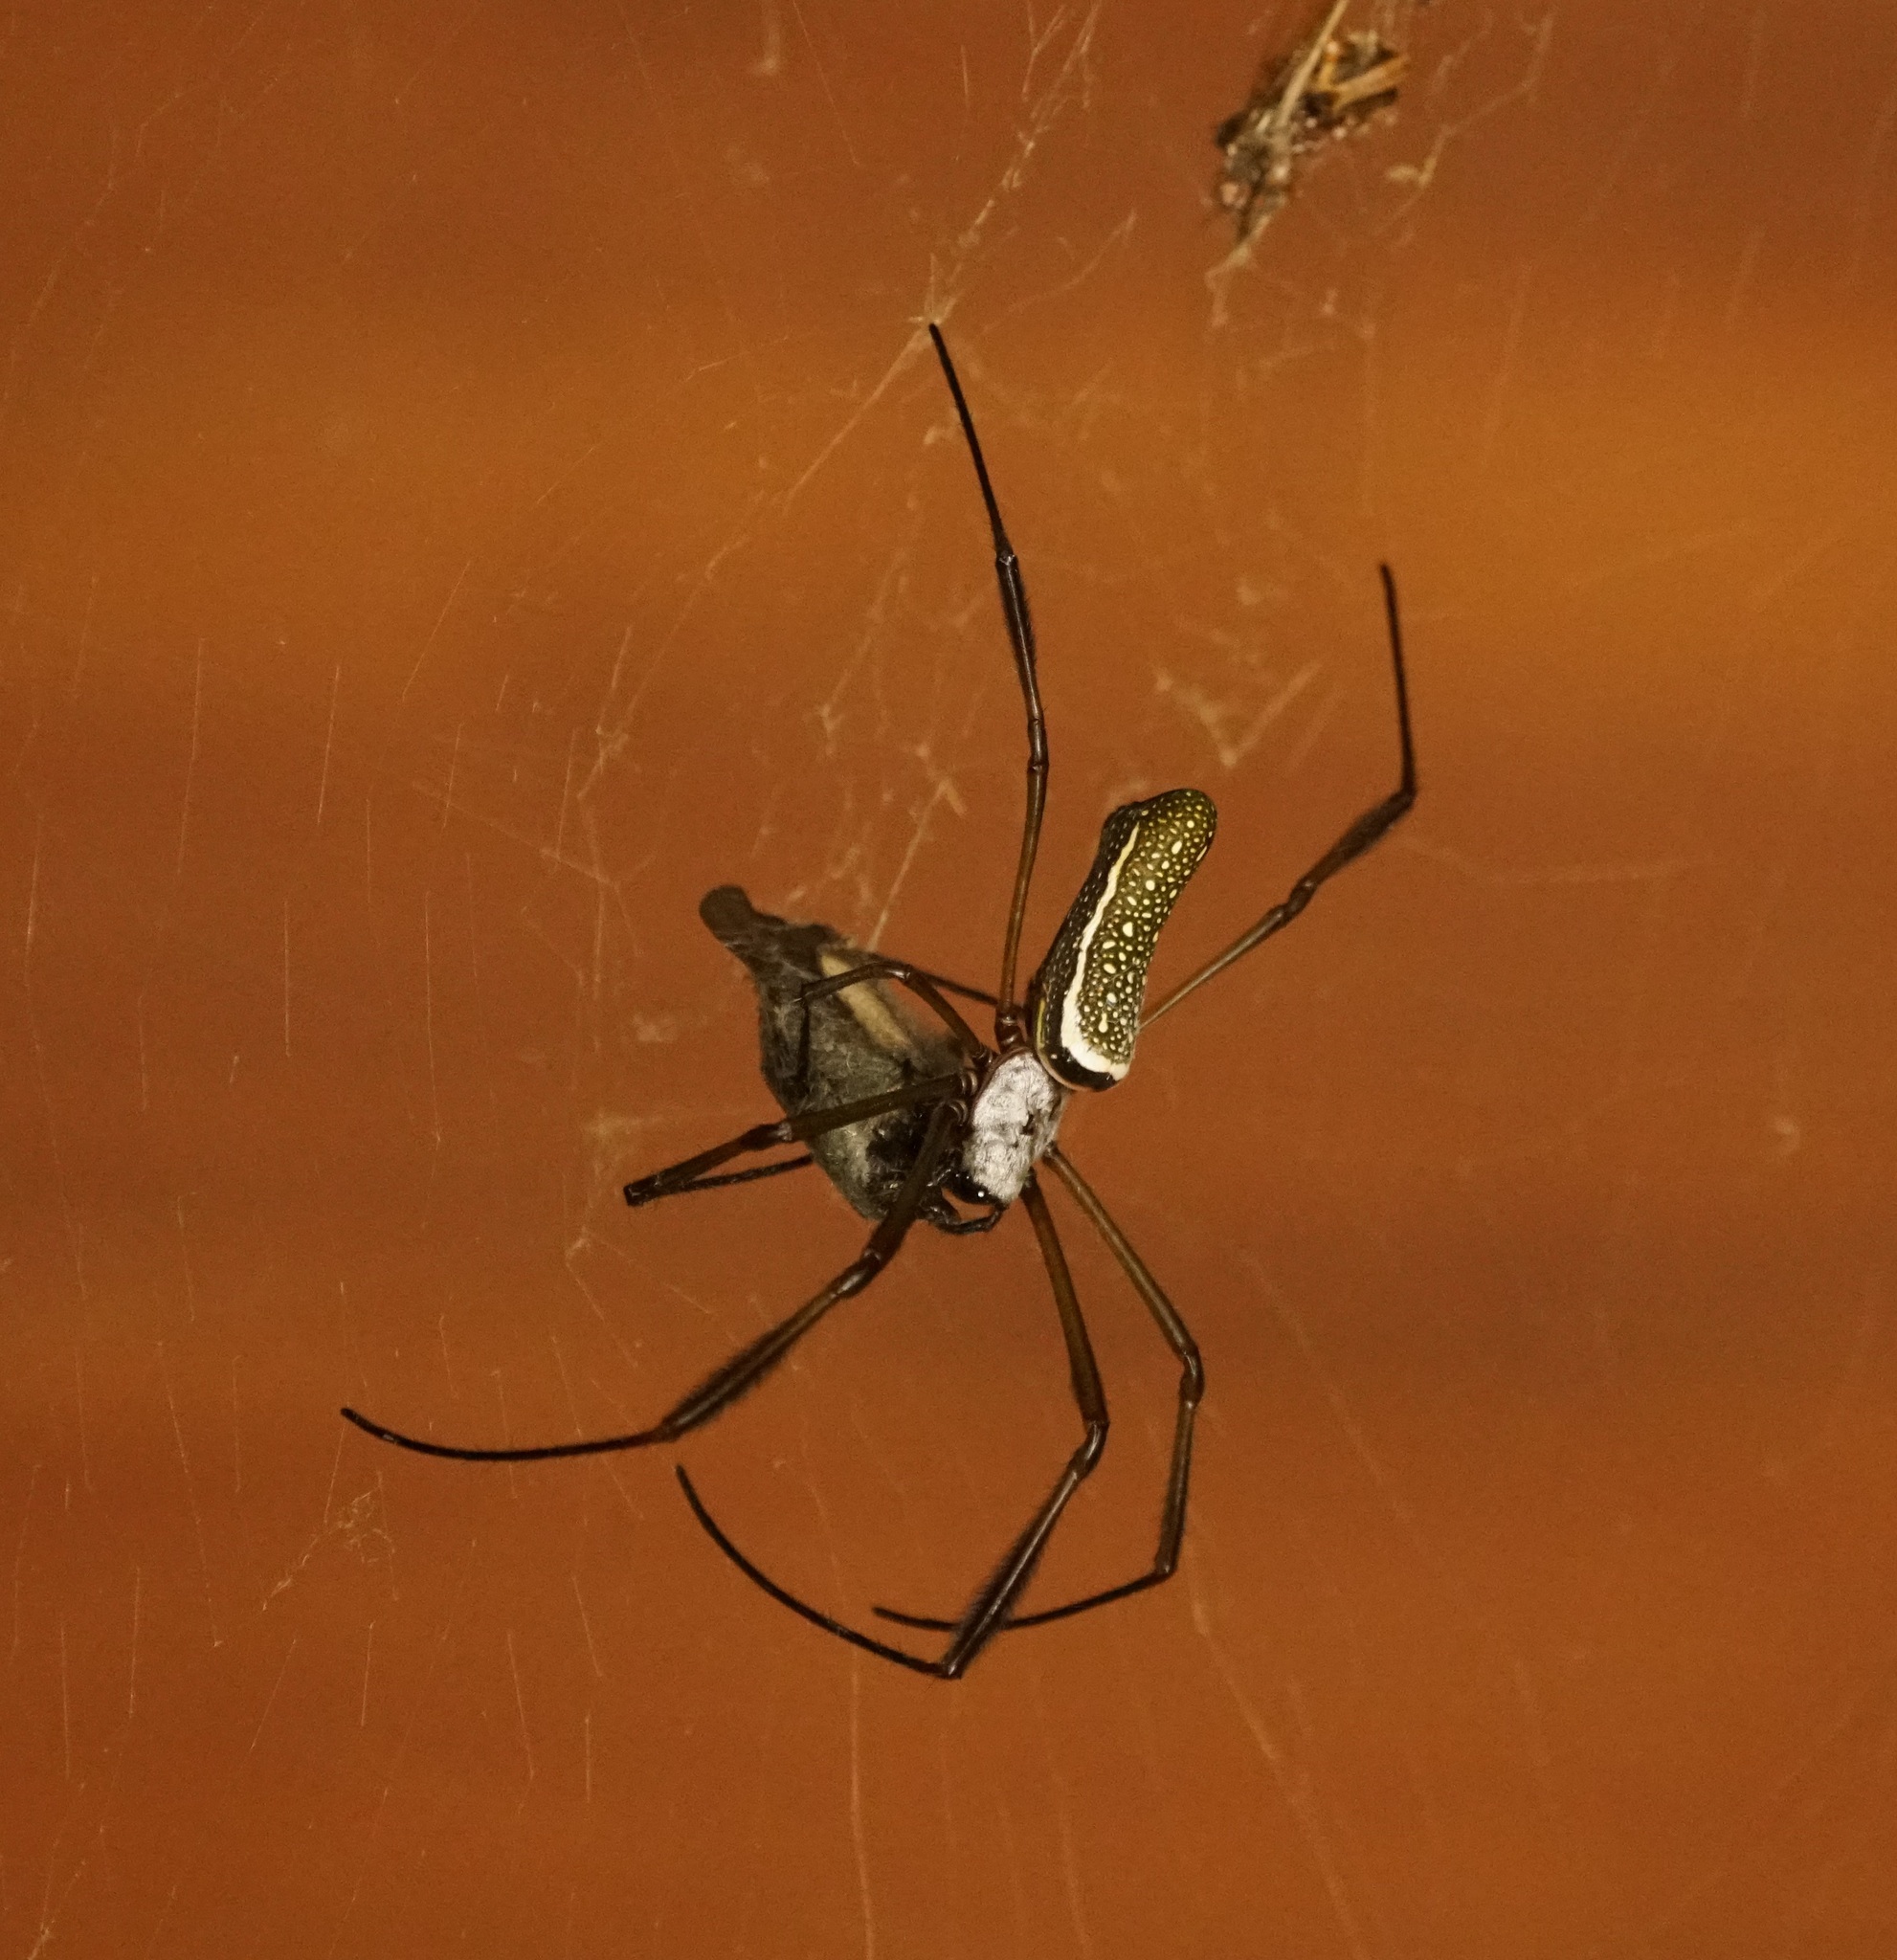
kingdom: Animalia
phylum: Arthropoda
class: Arachnida
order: Araneae
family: Araneidae
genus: Trichonephila
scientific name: Trichonephila clavipes
